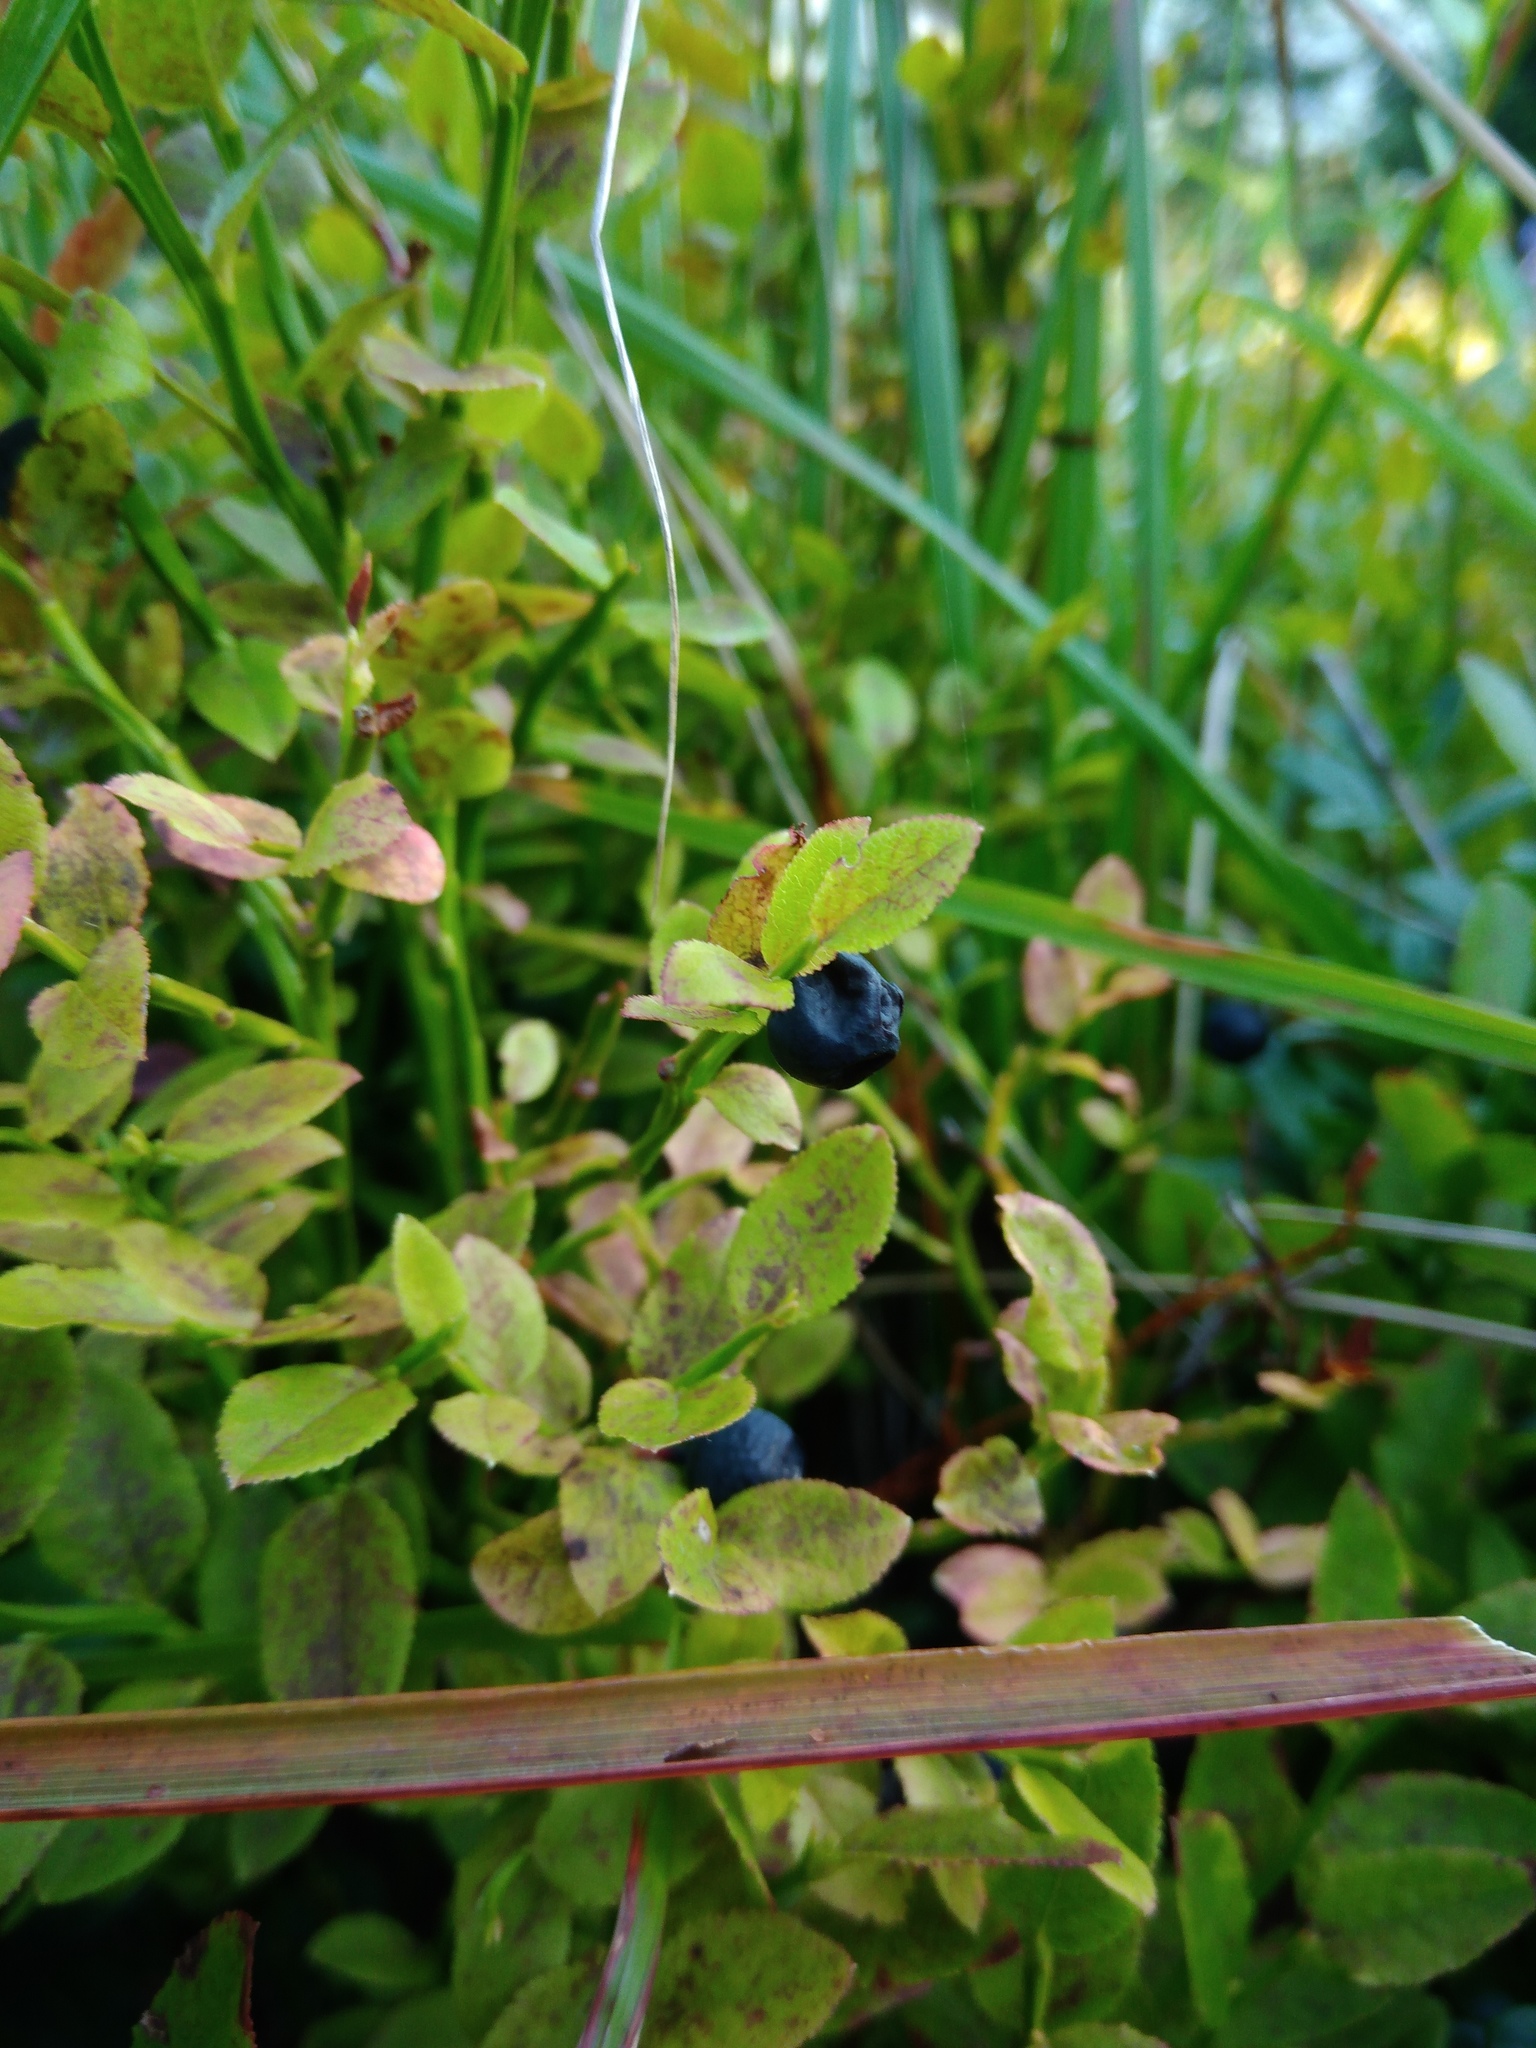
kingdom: Plantae
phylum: Tracheophyta
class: Magnoliopsida
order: Ericales
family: Ericaceae
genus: Vaccinium
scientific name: Vaccinium myrtillus
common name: Bilberry
